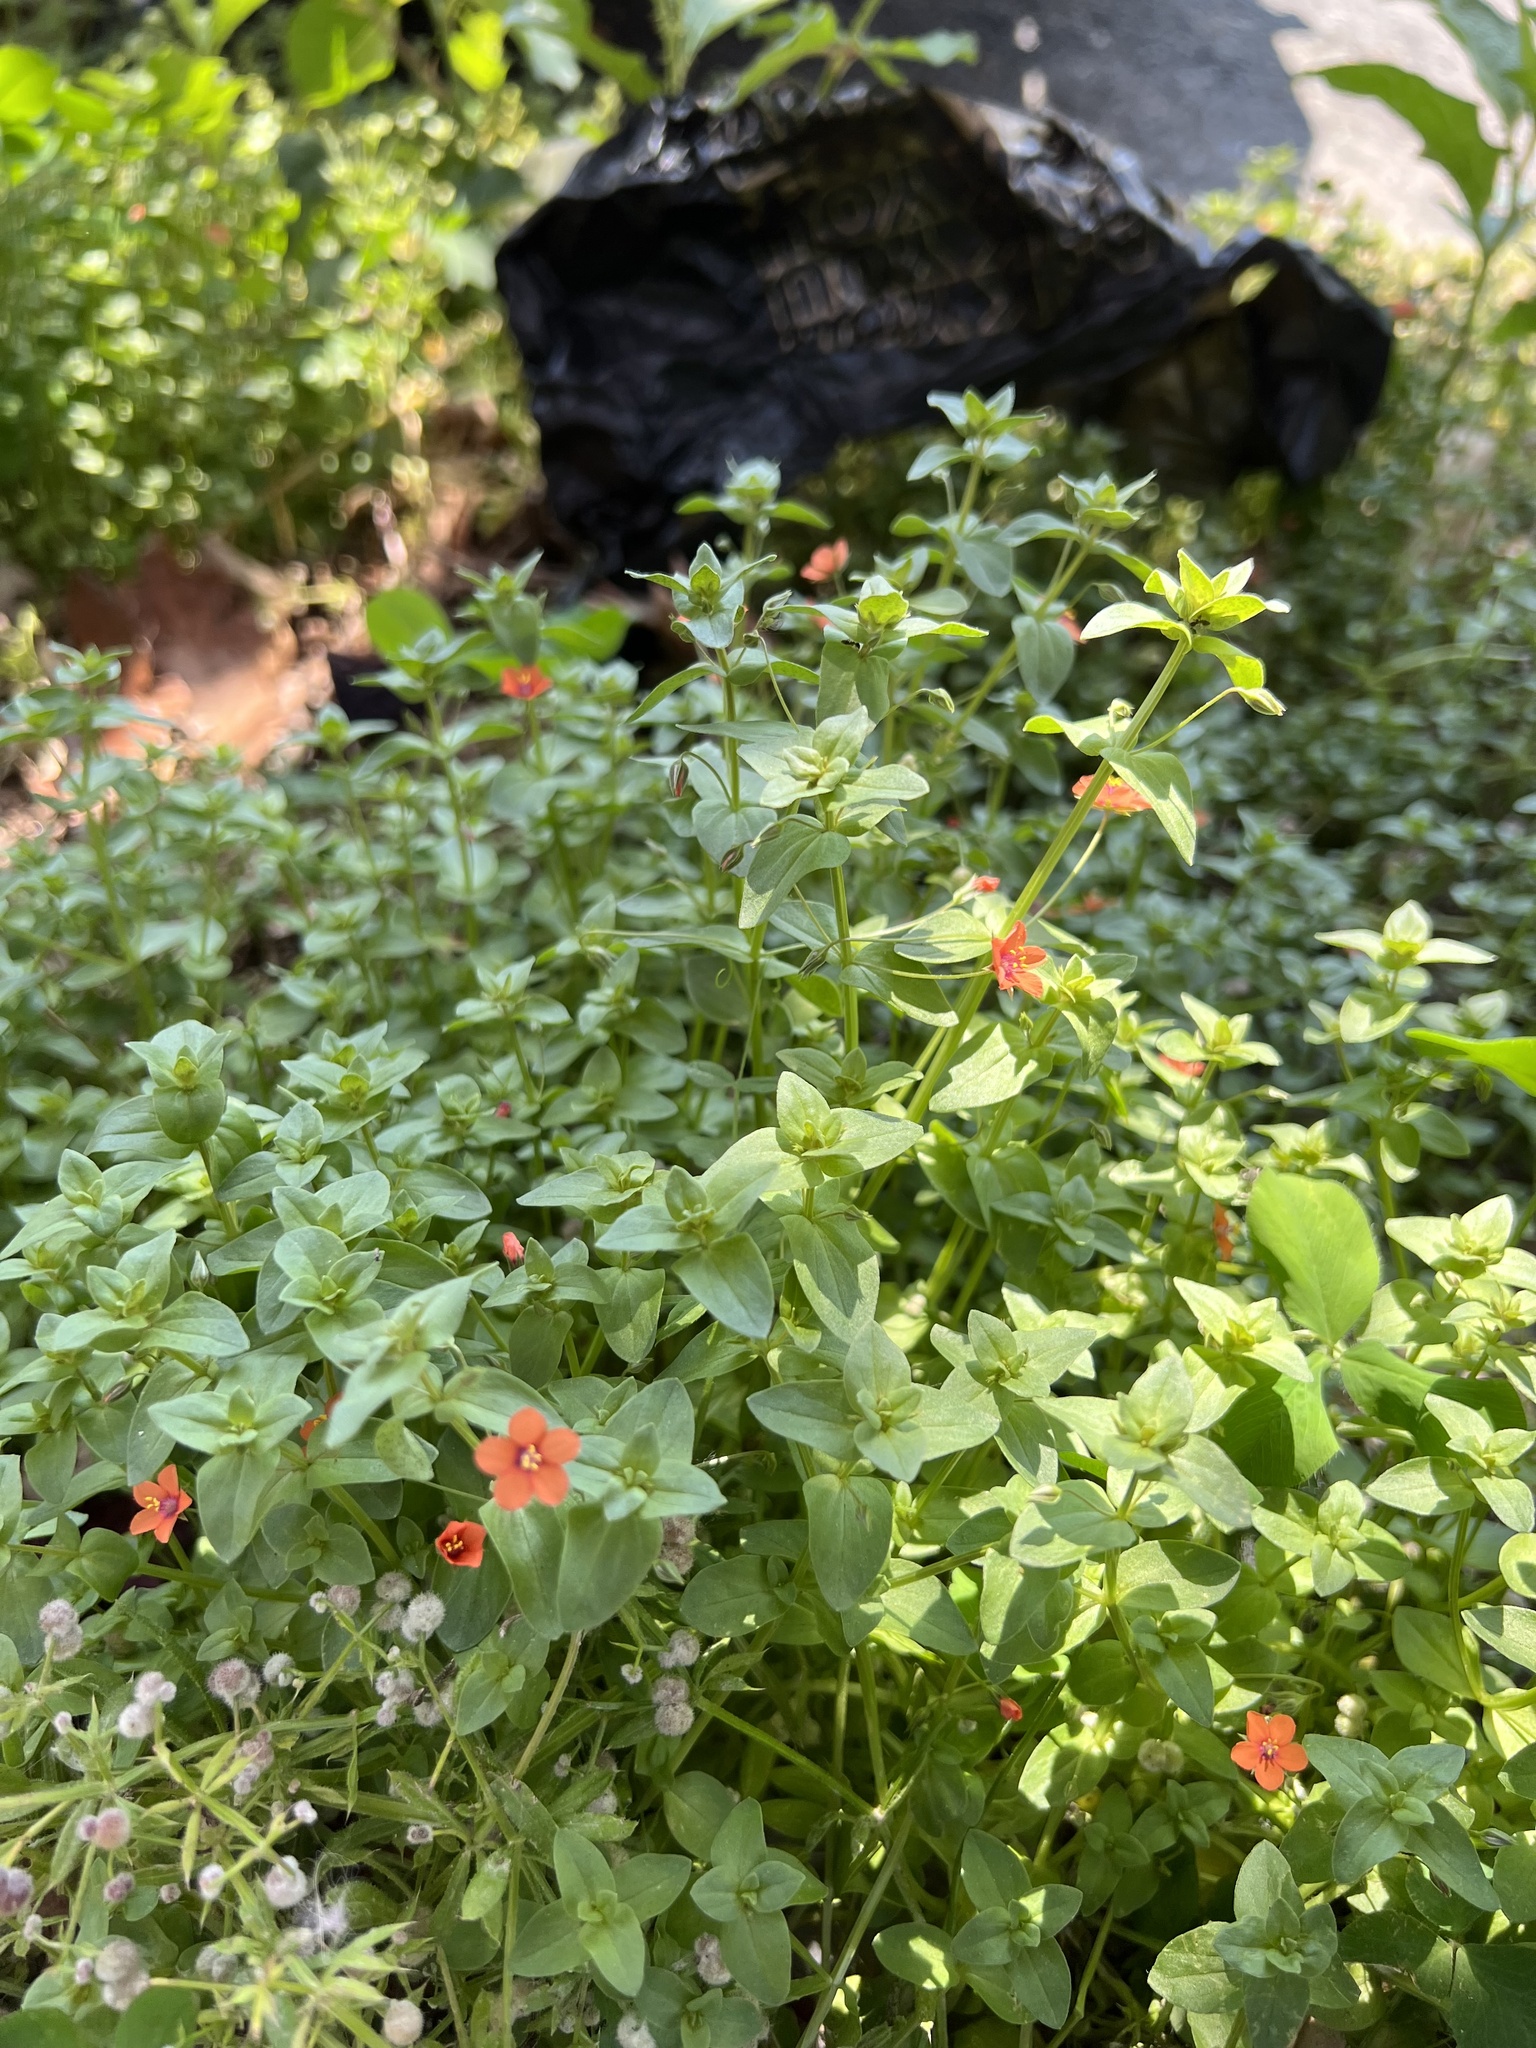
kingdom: Plantae
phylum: Tracheophyta
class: Magnoliopsida
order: Ericales
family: Primulaceae
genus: Lysimachia
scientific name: Lysimachia arvensis
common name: Scarlet pimpernel
